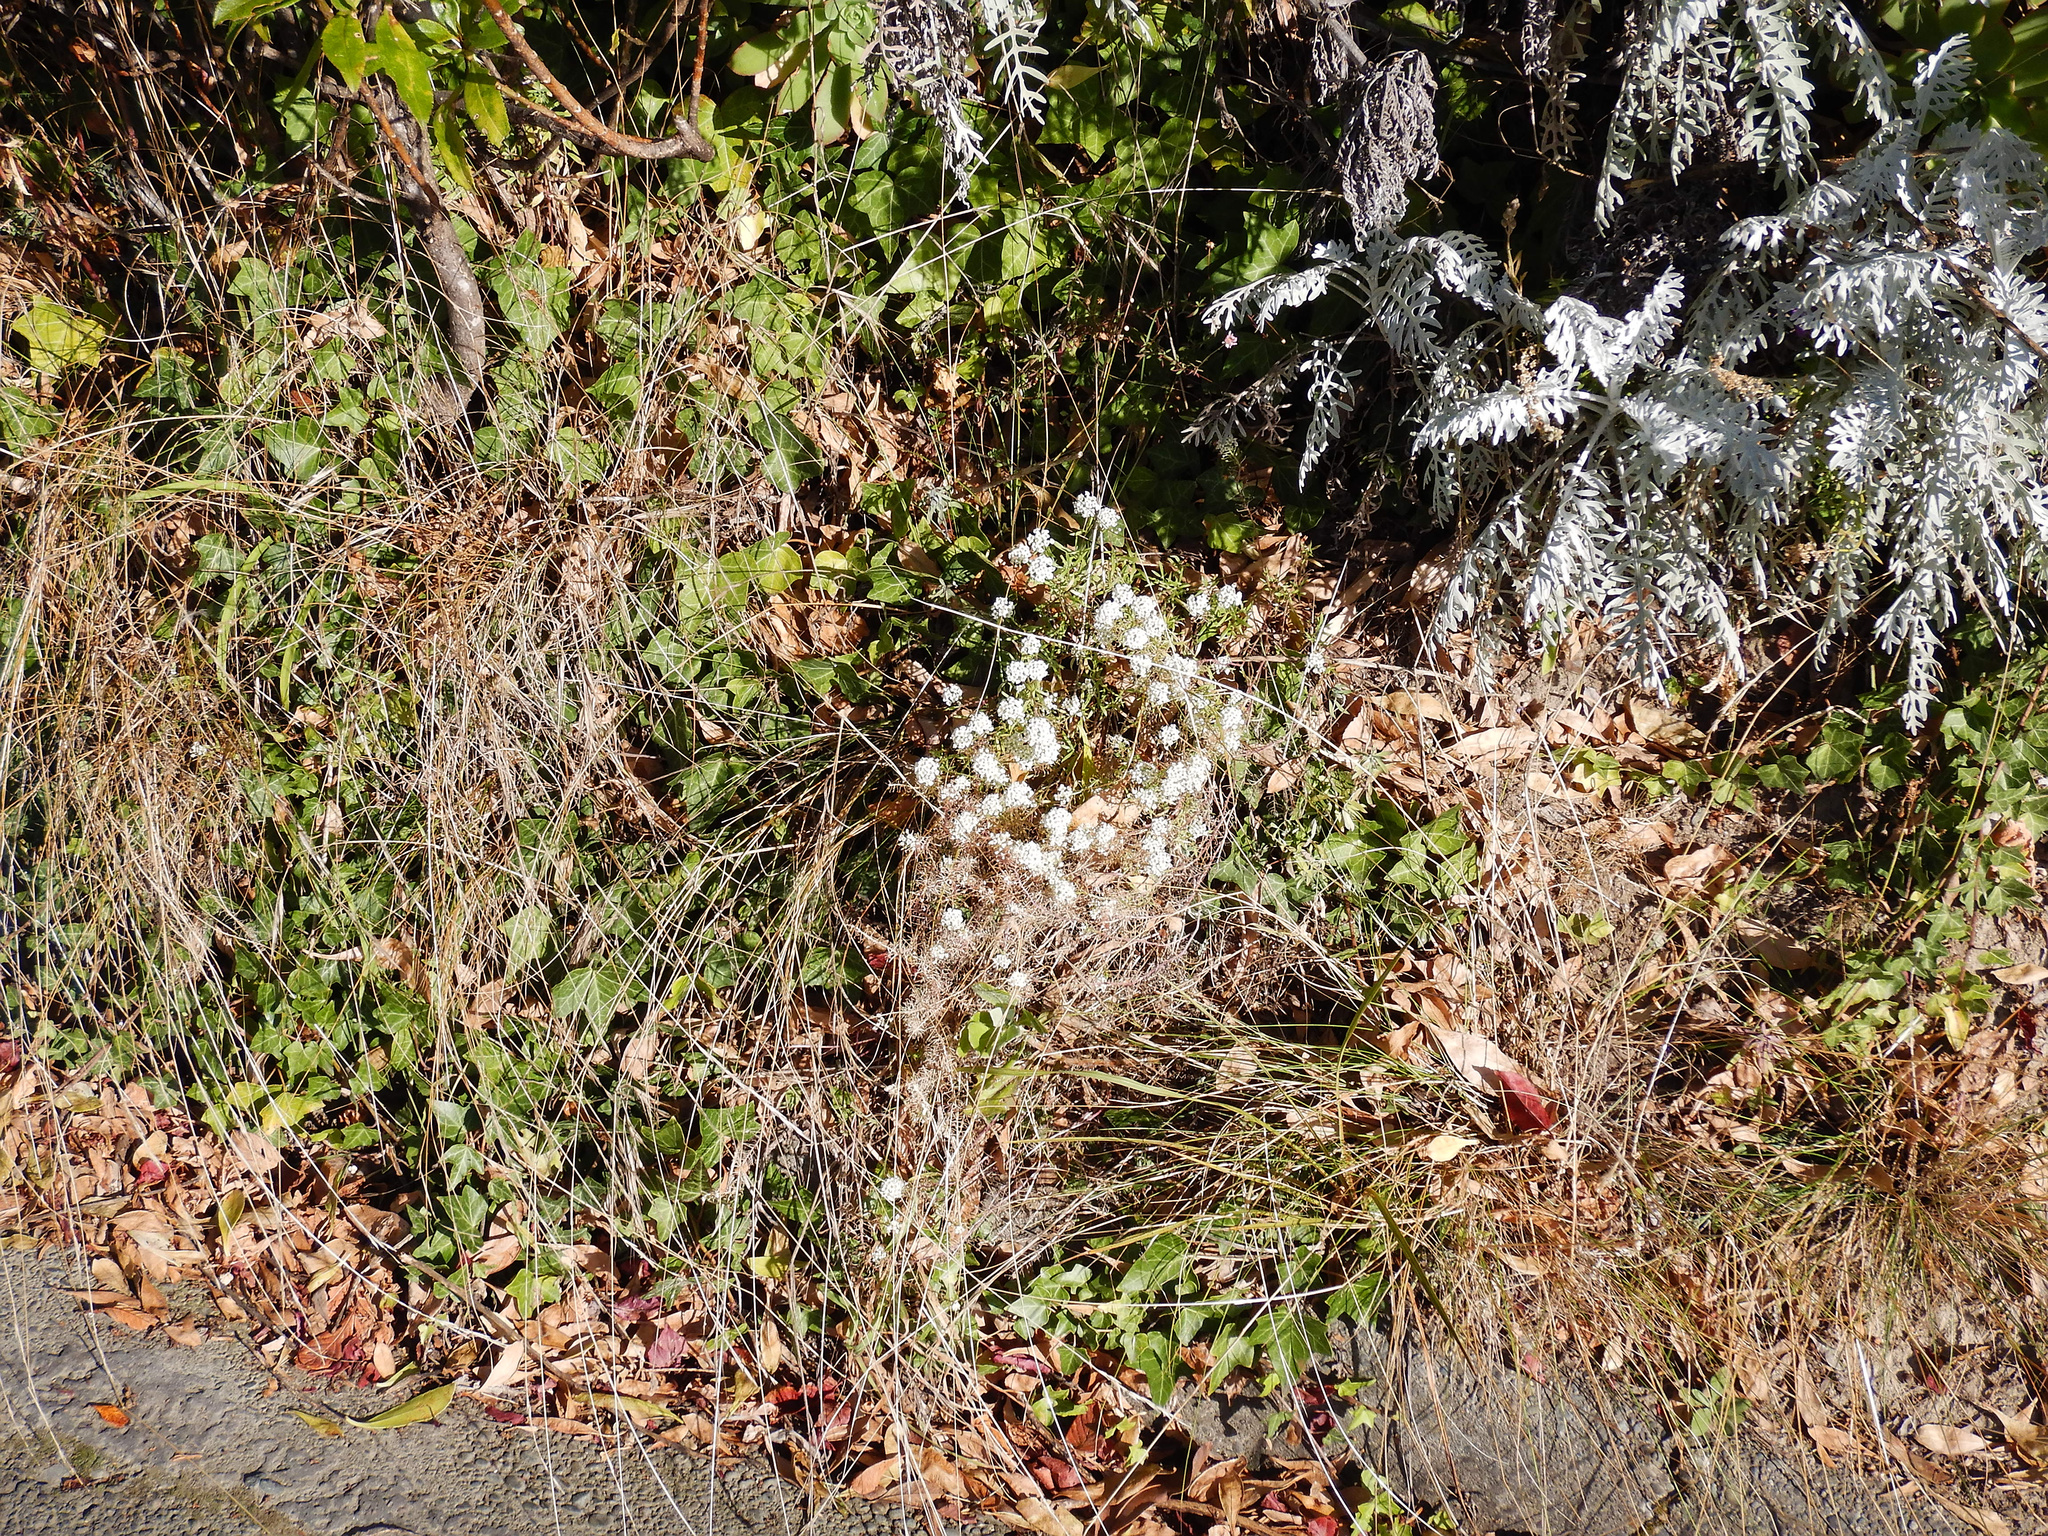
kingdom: Plantae
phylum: Tracheophyta
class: Magnoliopsida
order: Brassicales
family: Brassicaceae
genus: Lobularia
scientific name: Lobularia maritima
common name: Sweet alison
